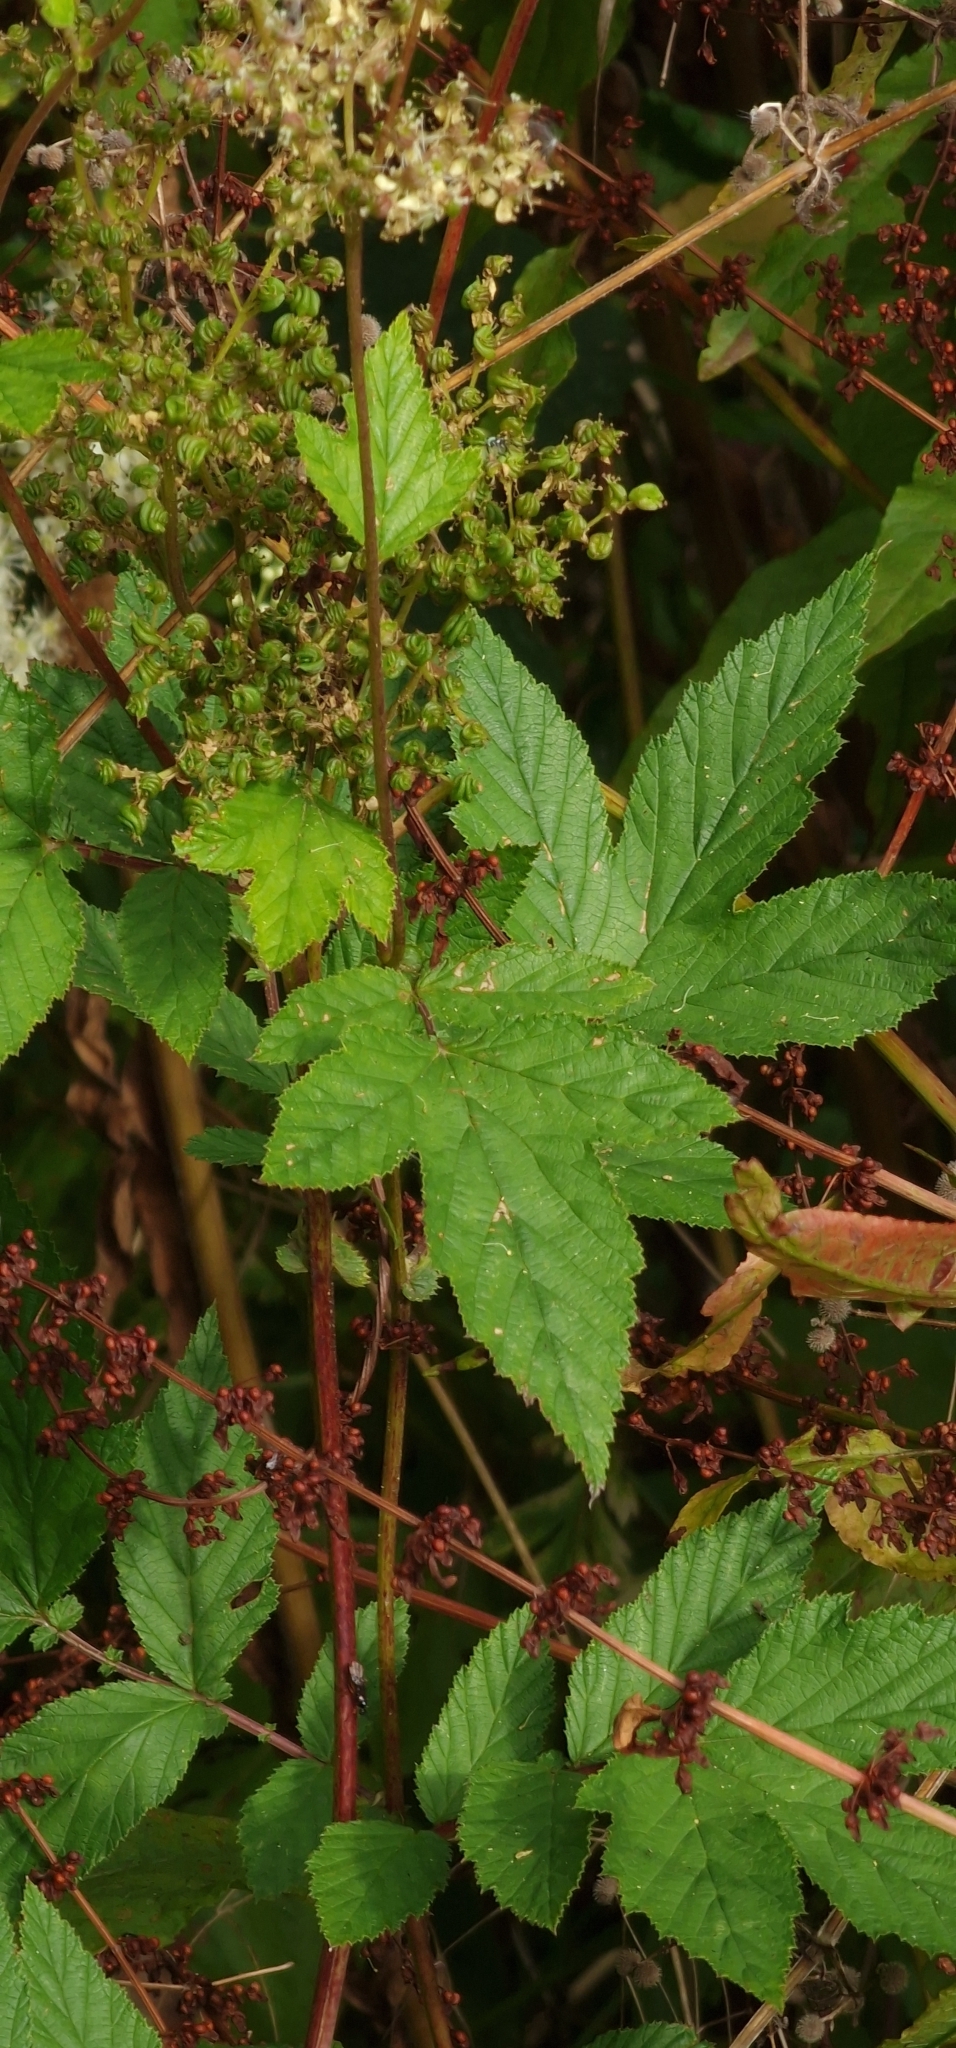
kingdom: Plantae
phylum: Tracheophyta
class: Magnoliopsida
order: Rosales
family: Rosaceae
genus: Filipendula
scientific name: Filipendula ulmaria
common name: Meadowsweet
